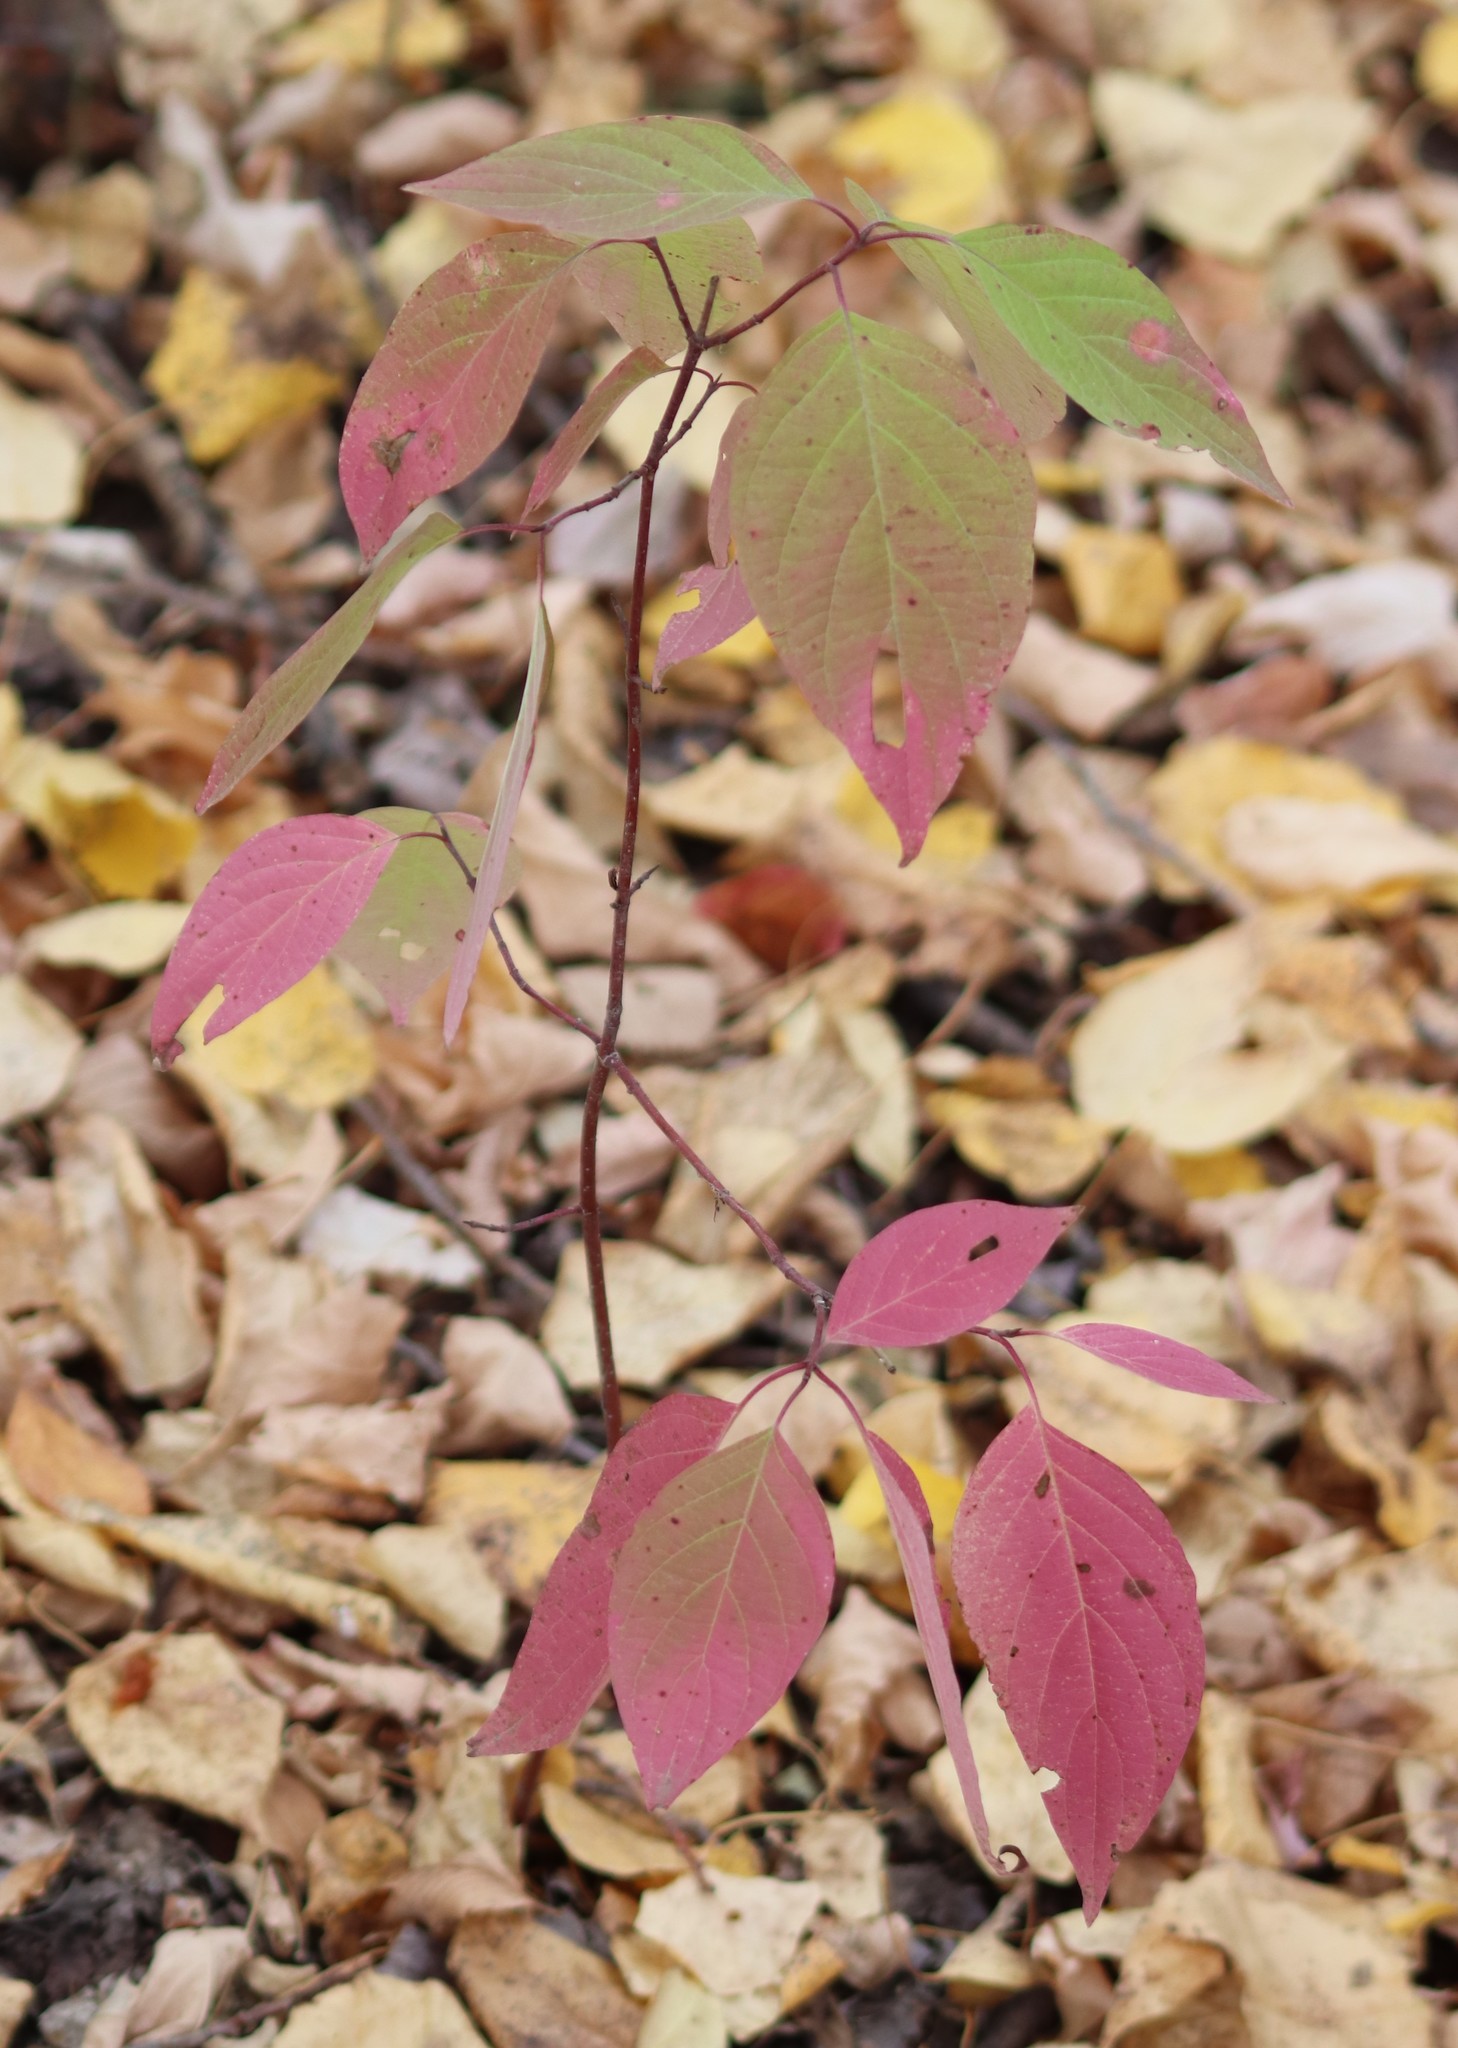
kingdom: Plantae
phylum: Tracheophyta
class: Magnoliopsida
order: Cornales
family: Cornaceae
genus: Cornus
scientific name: Cornus sericea
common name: Red-osier dogwood
